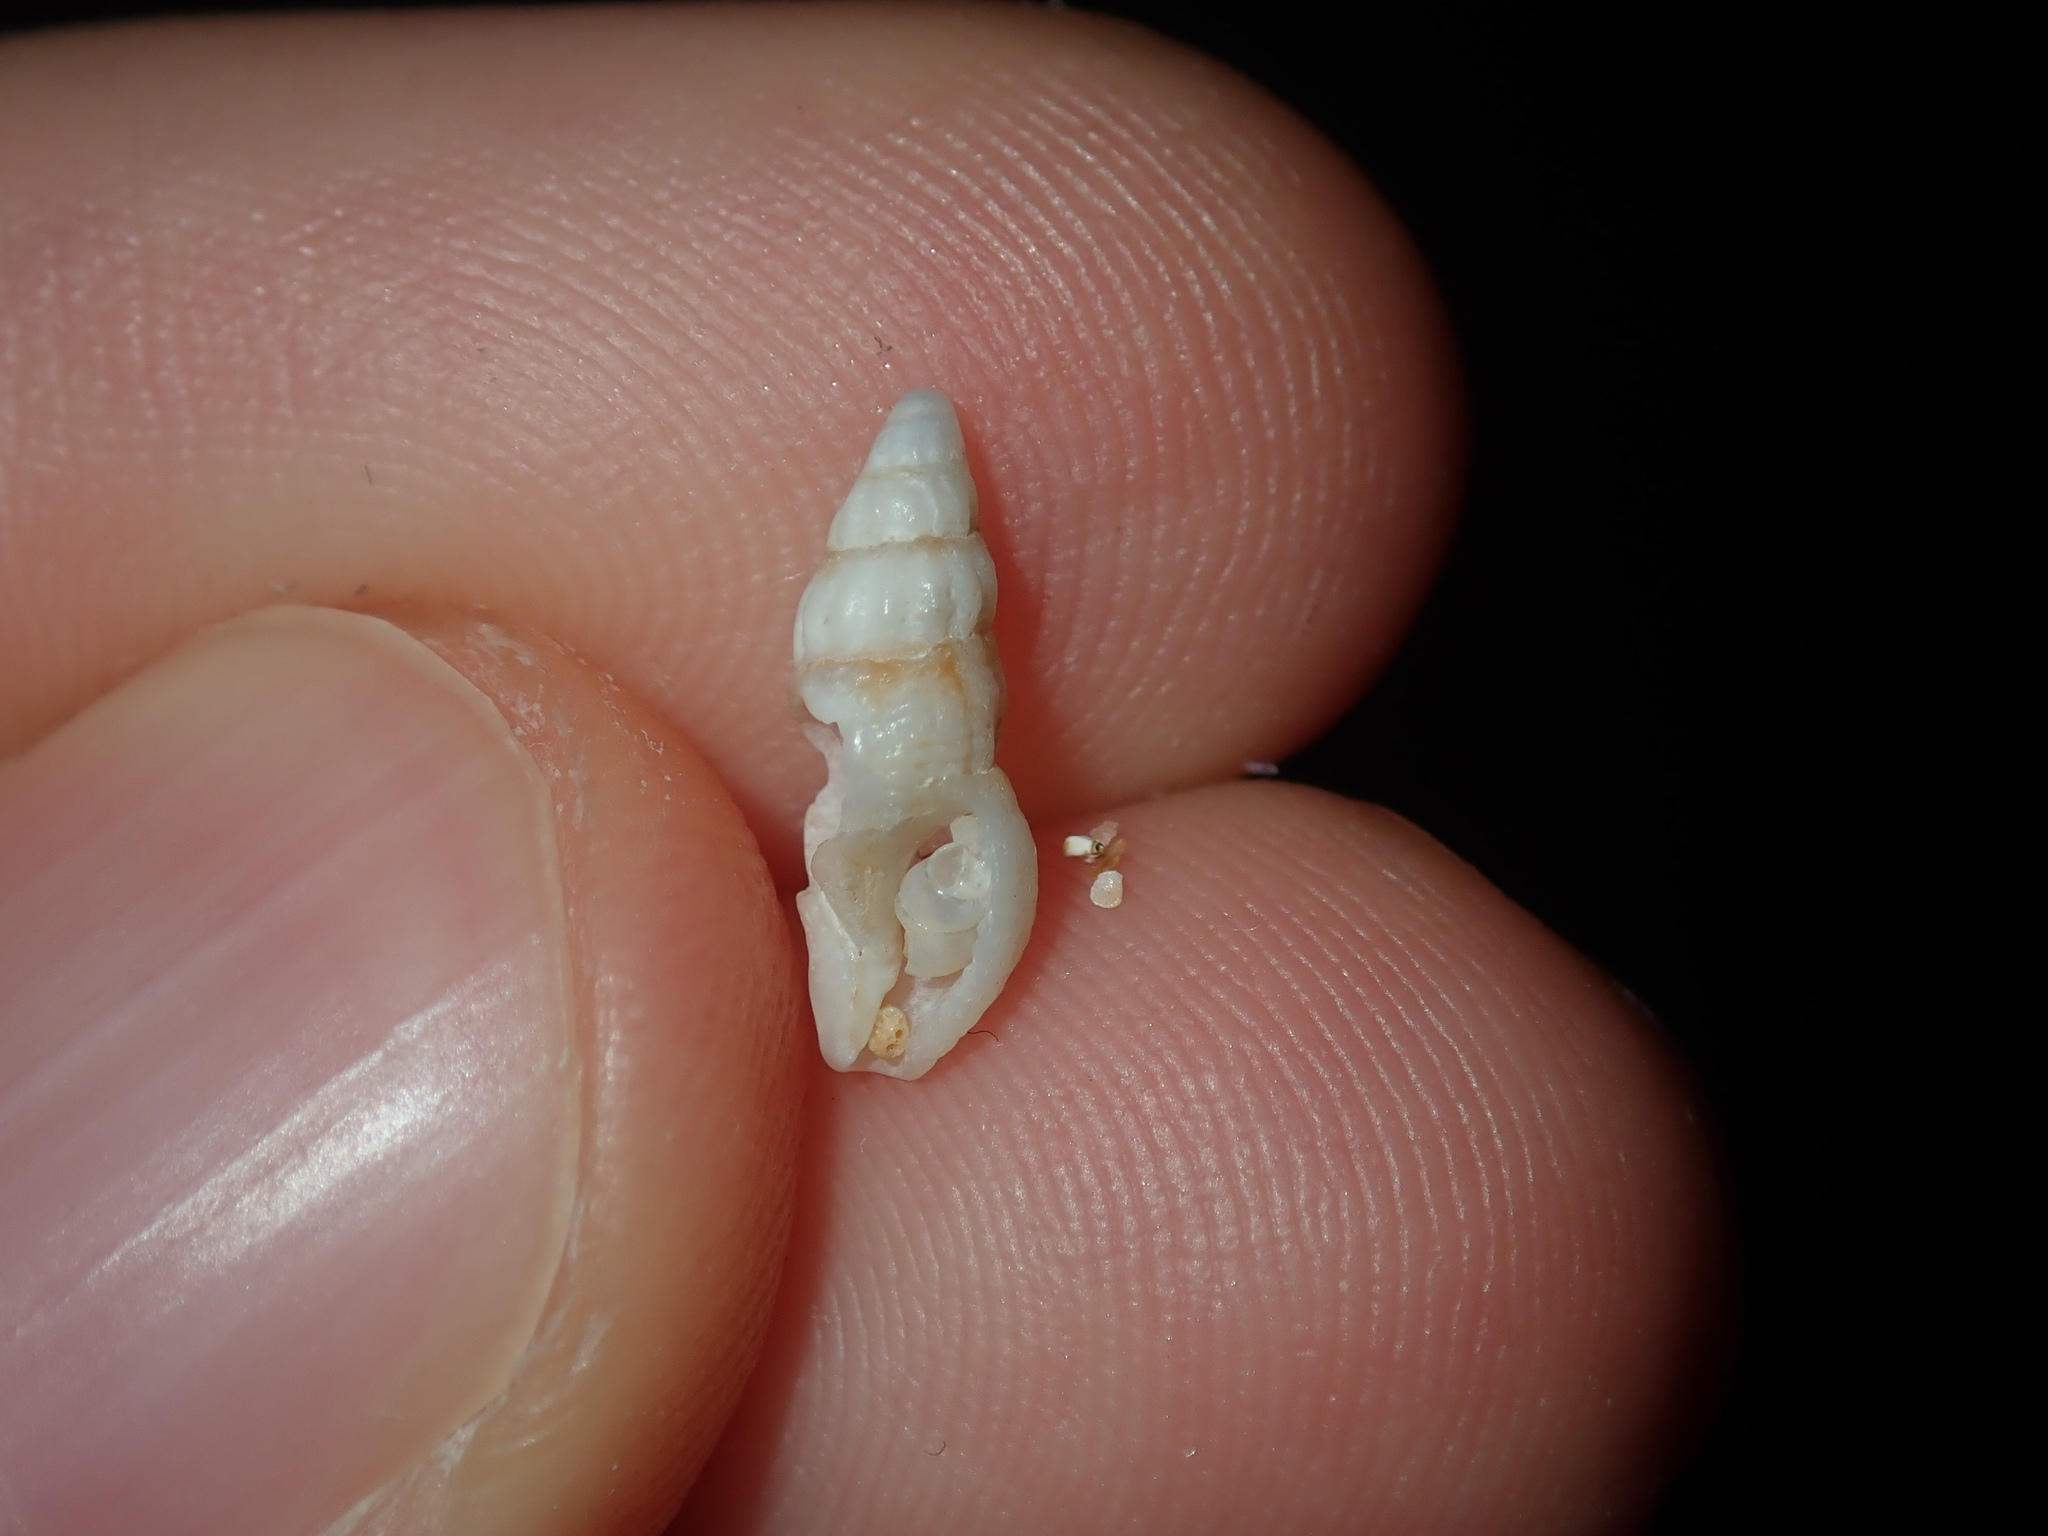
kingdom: Animalia
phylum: Mollusca
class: Gastropoda
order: Neogastropoda
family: Pisaniidae
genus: Engina
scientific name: Engina australis
